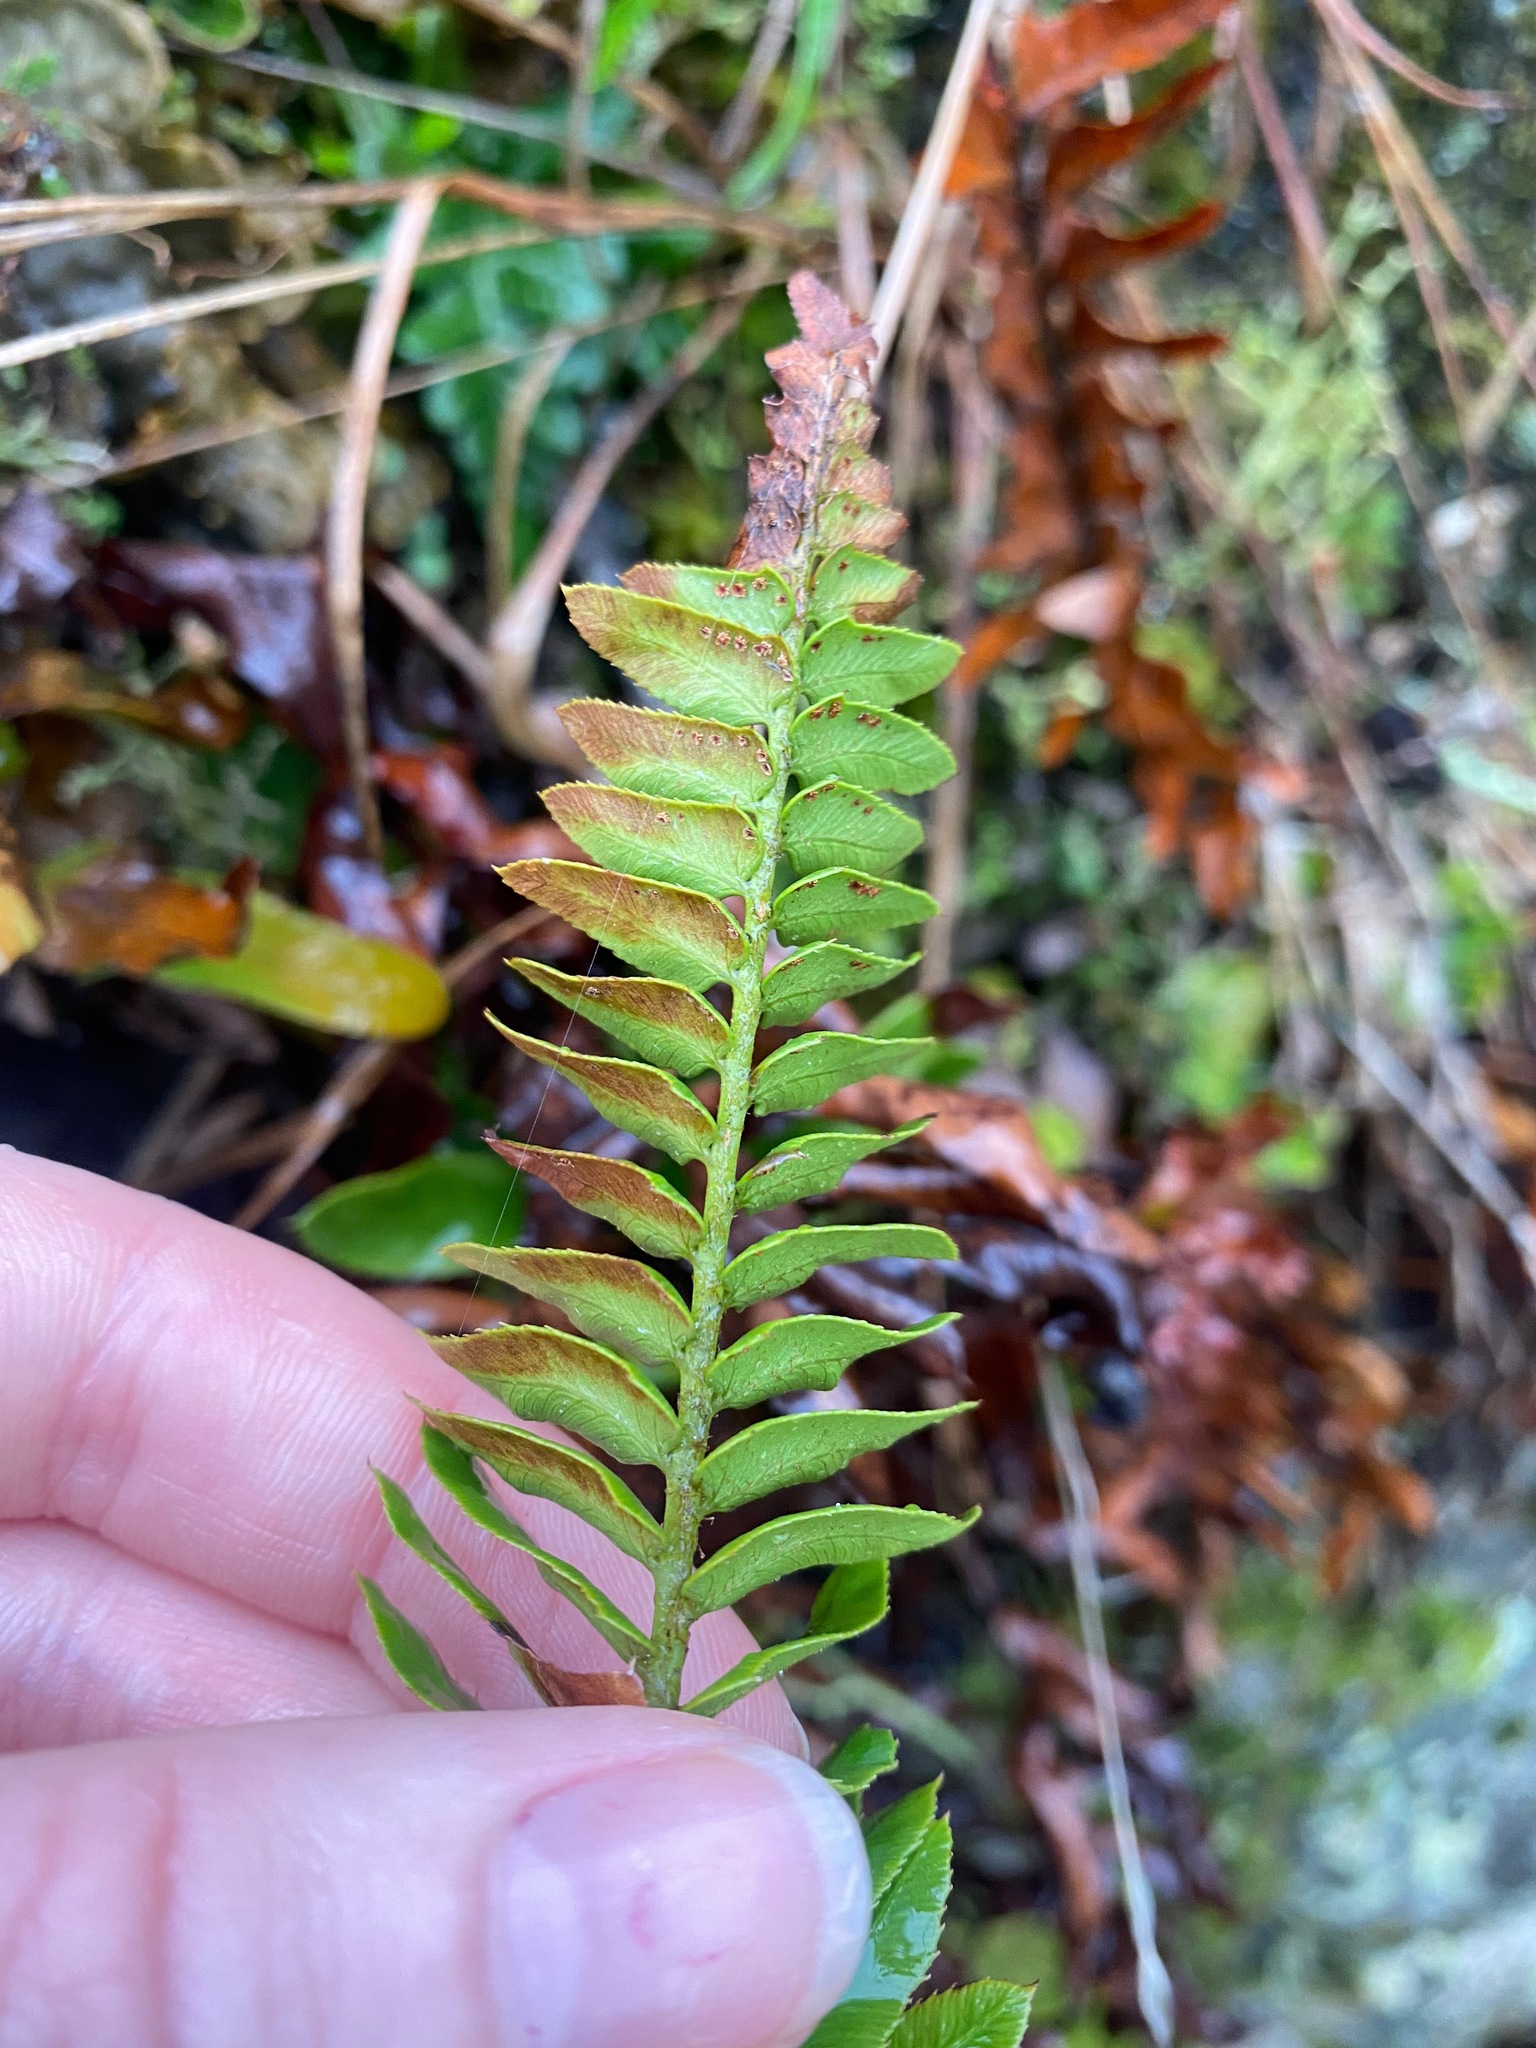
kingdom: Plantae
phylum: Tracheophyta
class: Polypodiopsida
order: Polypodiales
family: Dryopteridaceae
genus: Polystichum
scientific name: Polystichum imbricans
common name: Dwarf western sword fern
